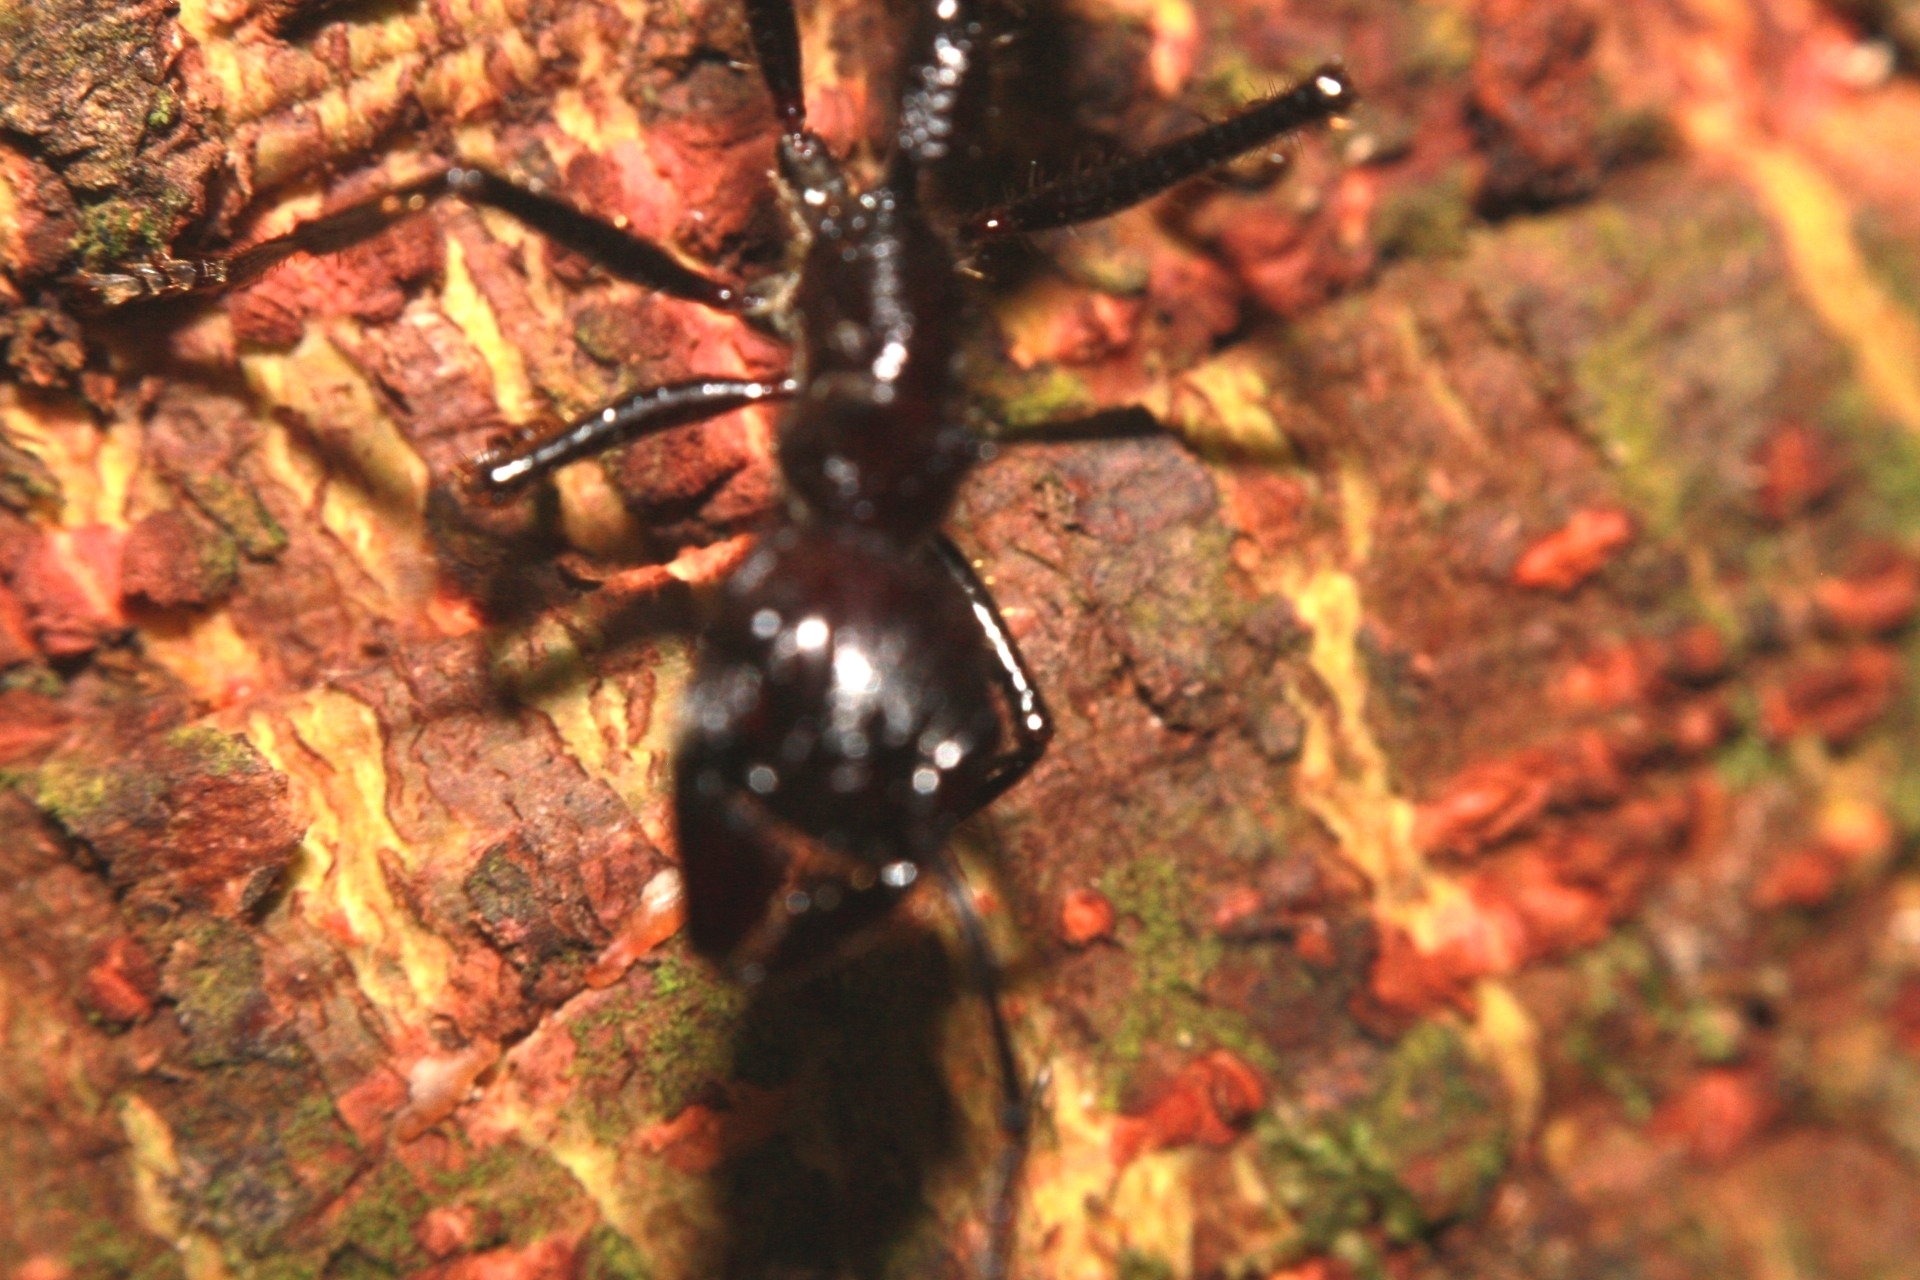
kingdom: Animalia
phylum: Arthropoda
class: Insecta
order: Hymenoptera
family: Formicidae
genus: Paraponera
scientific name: Paraponera clavata
